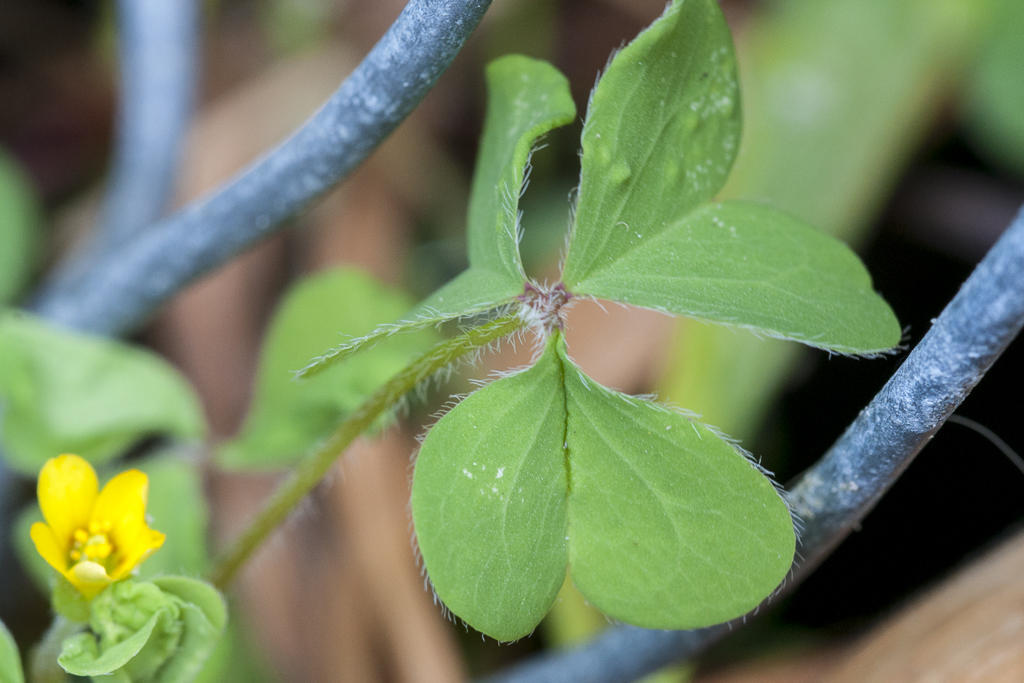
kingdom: Plantae
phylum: Tracheophyta
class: Magnoliopsida
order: Oxalidales
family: Oxalidaceae
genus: Oxalis
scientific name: Oxalis corniculata
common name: Procumbent yellow-sorrel
